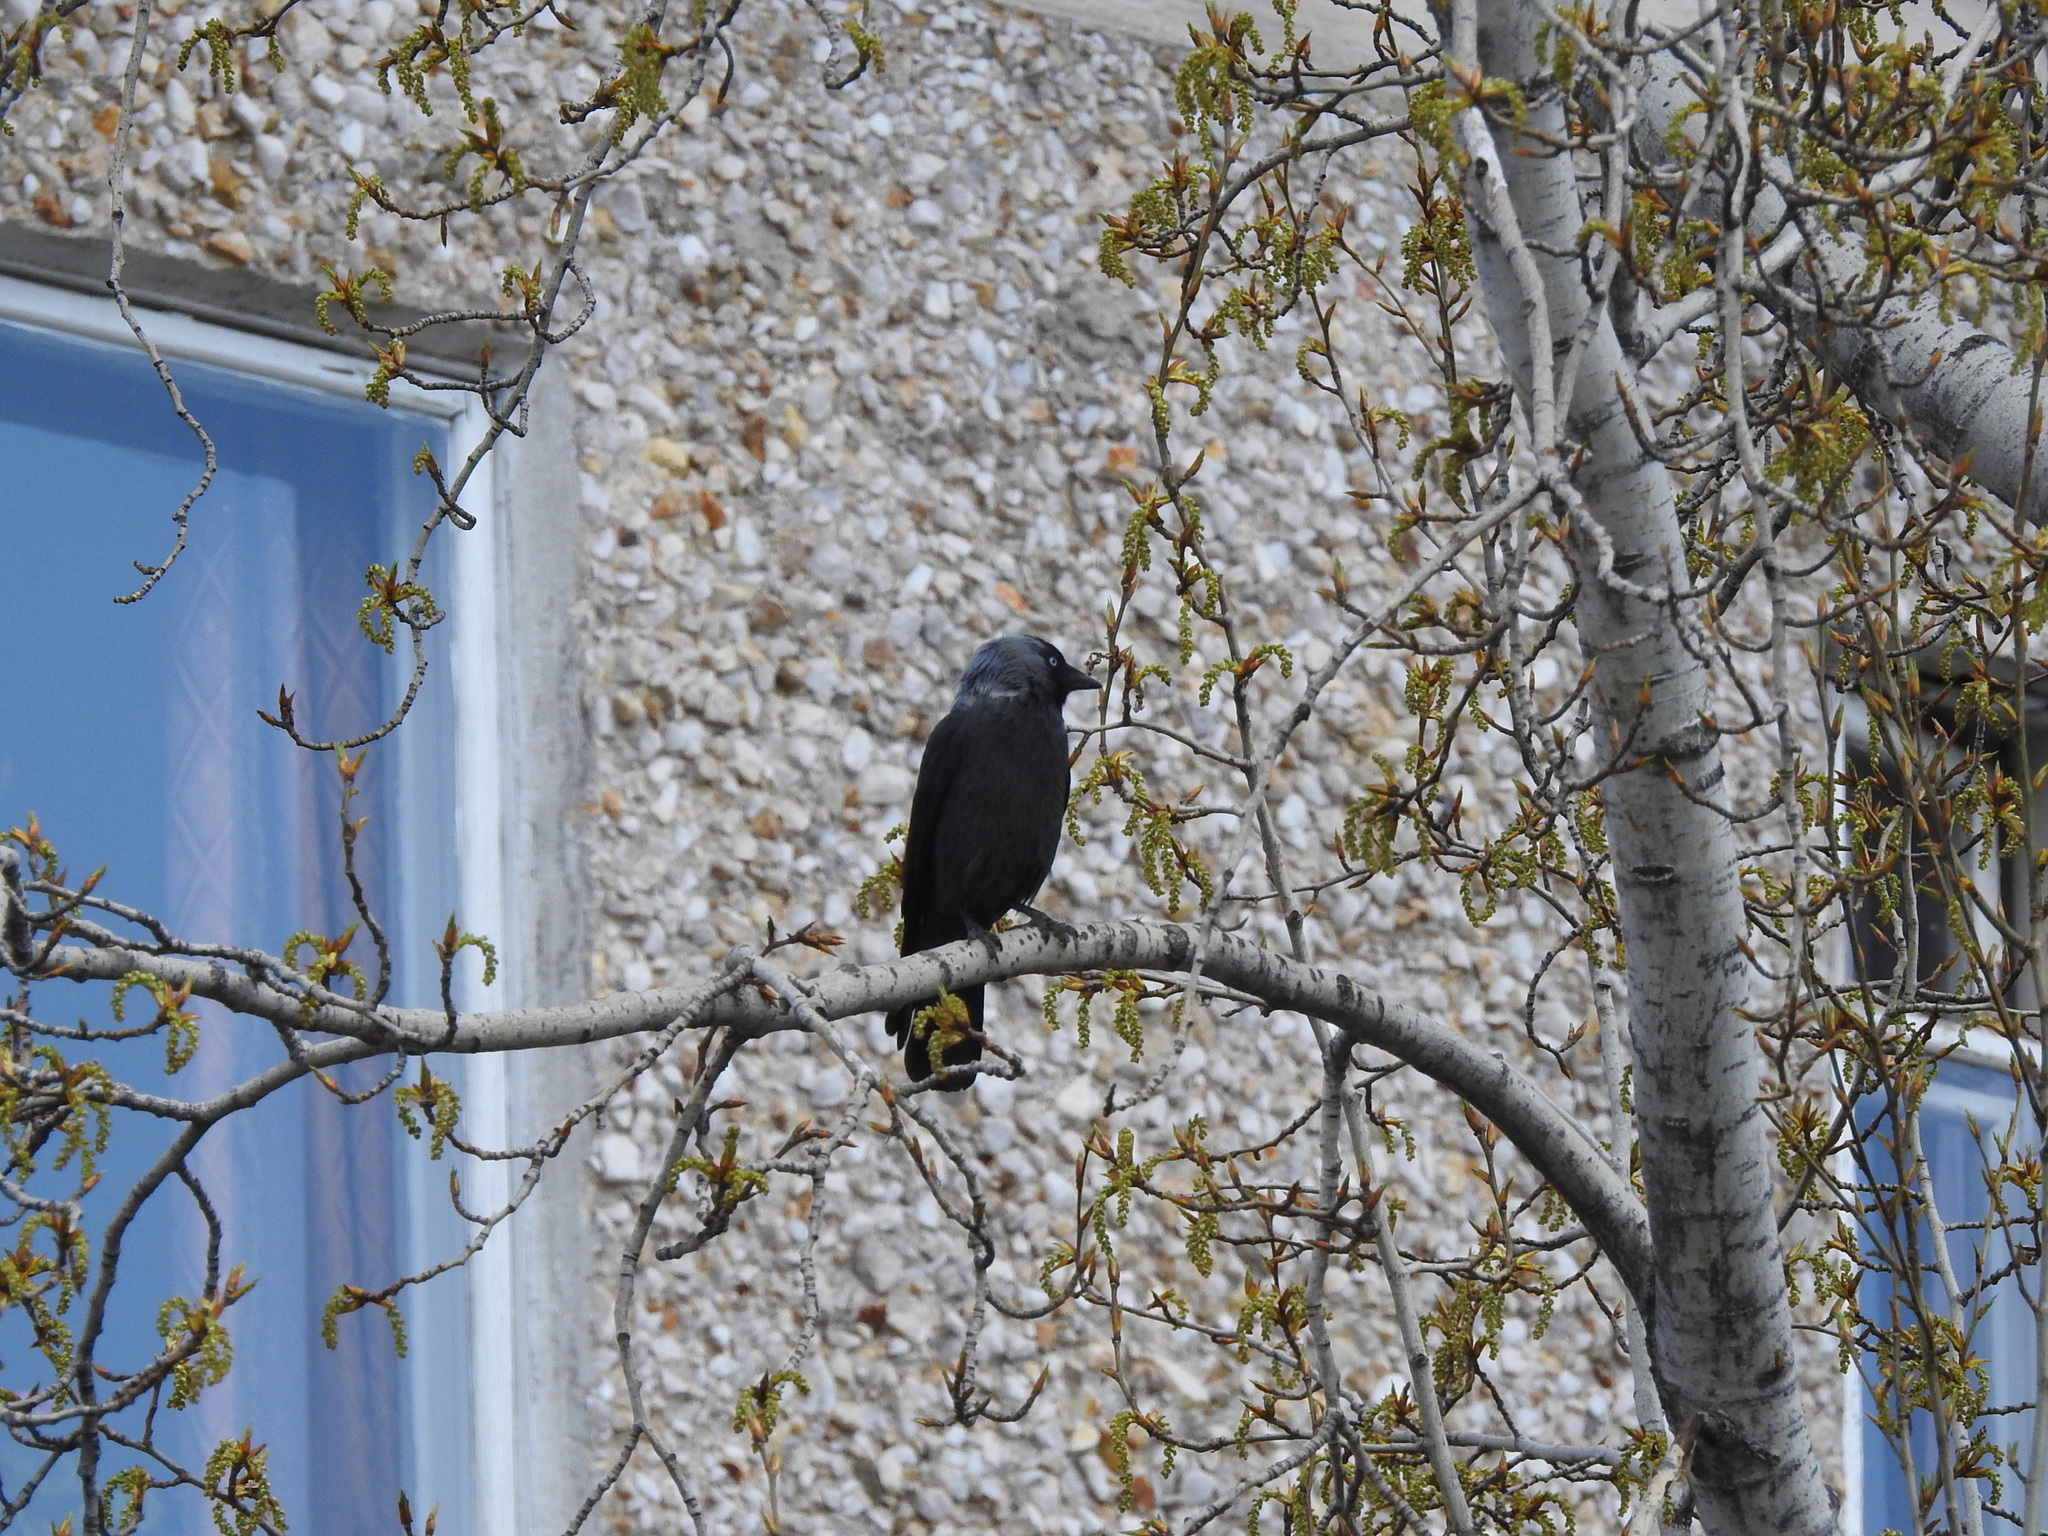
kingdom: Animalia
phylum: Chordata
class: Aves
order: Passeriformes
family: Corvidae
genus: Coloeus
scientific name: Coloeus monedula
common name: Western jackdaw
